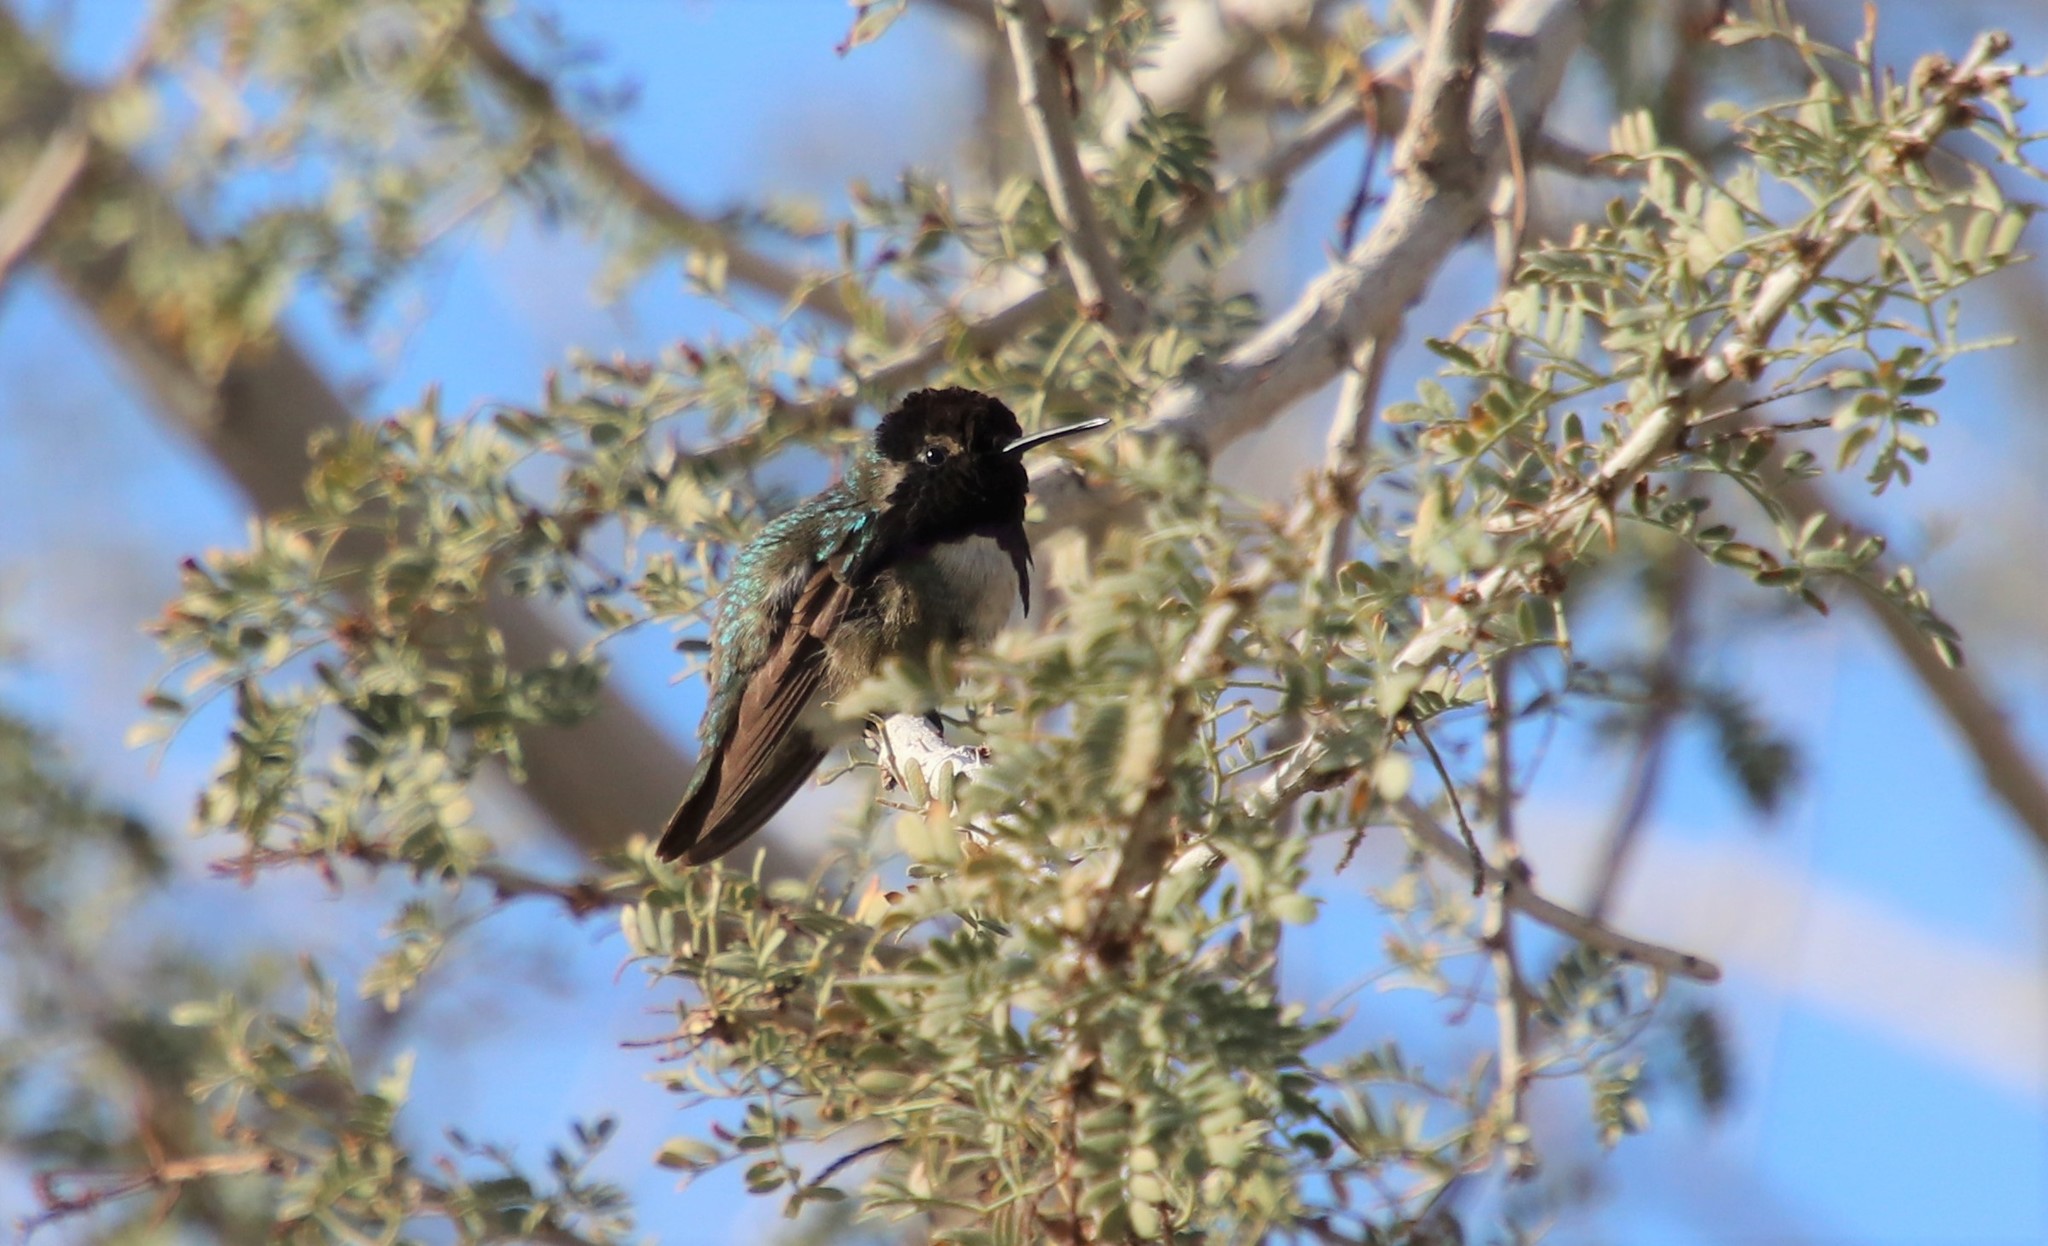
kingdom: Animalia
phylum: Chordata
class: Aves
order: Apodiformes
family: Trochilidae
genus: Calypte
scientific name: Calypte costae
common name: Costa's hummingbird
